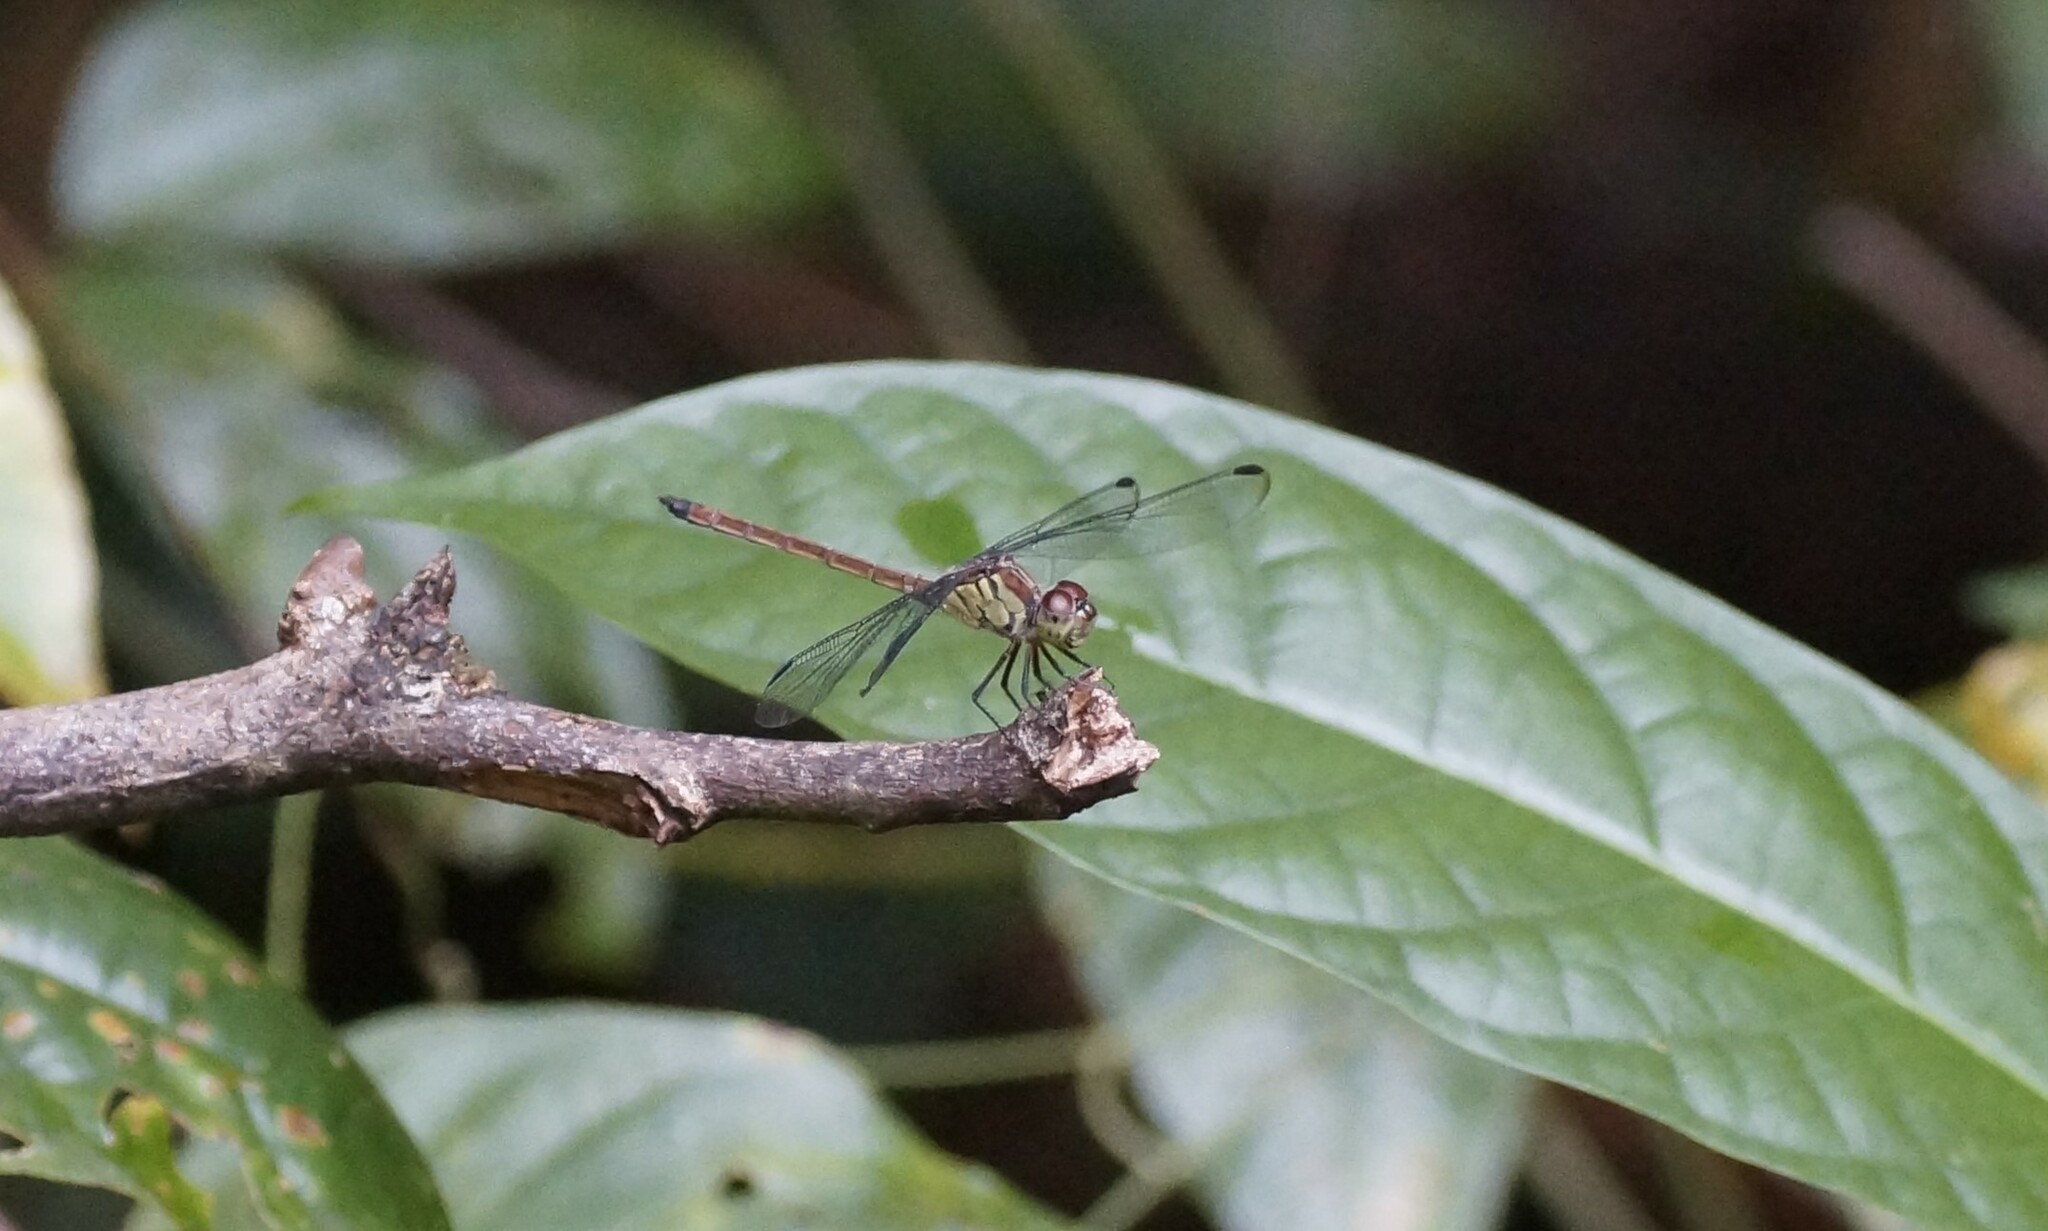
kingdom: Animalia
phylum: Arthropoda
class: Insecta
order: Odonata
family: Libellulidae
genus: Lathrecista
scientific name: Lathrecista asiatica
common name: Scarlet grenadier
